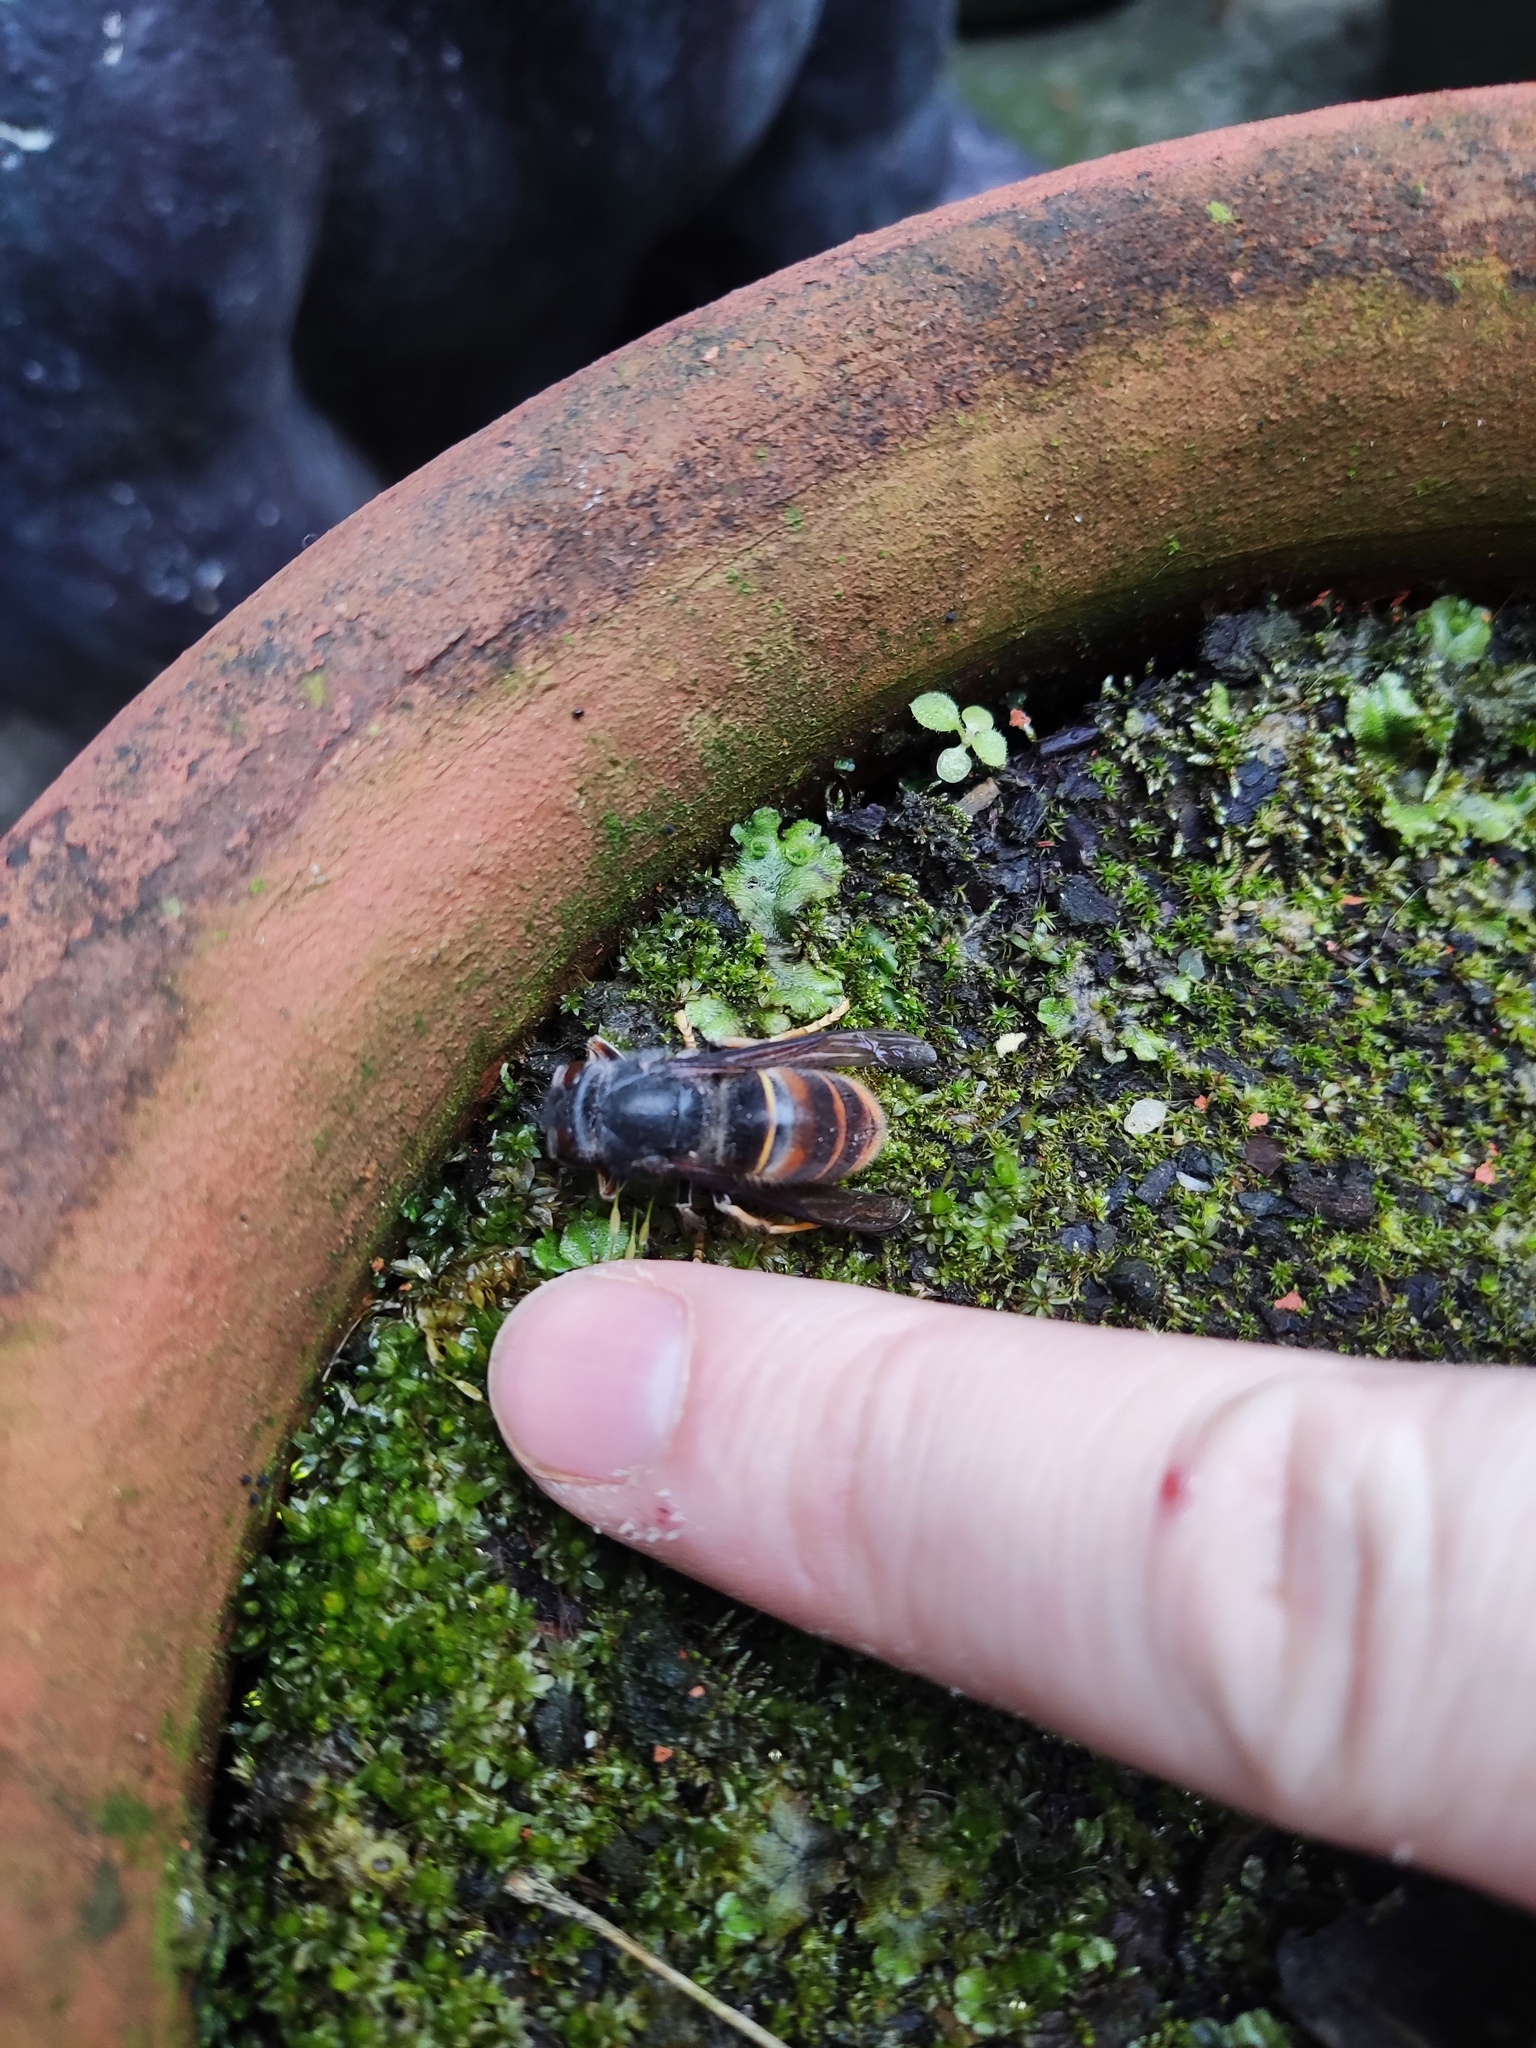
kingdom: Animalia
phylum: Arthropoda
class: Insecta
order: Hymenoptera
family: Vespidae
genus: Vespa
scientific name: Vespa velutina
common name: Asian hornet
